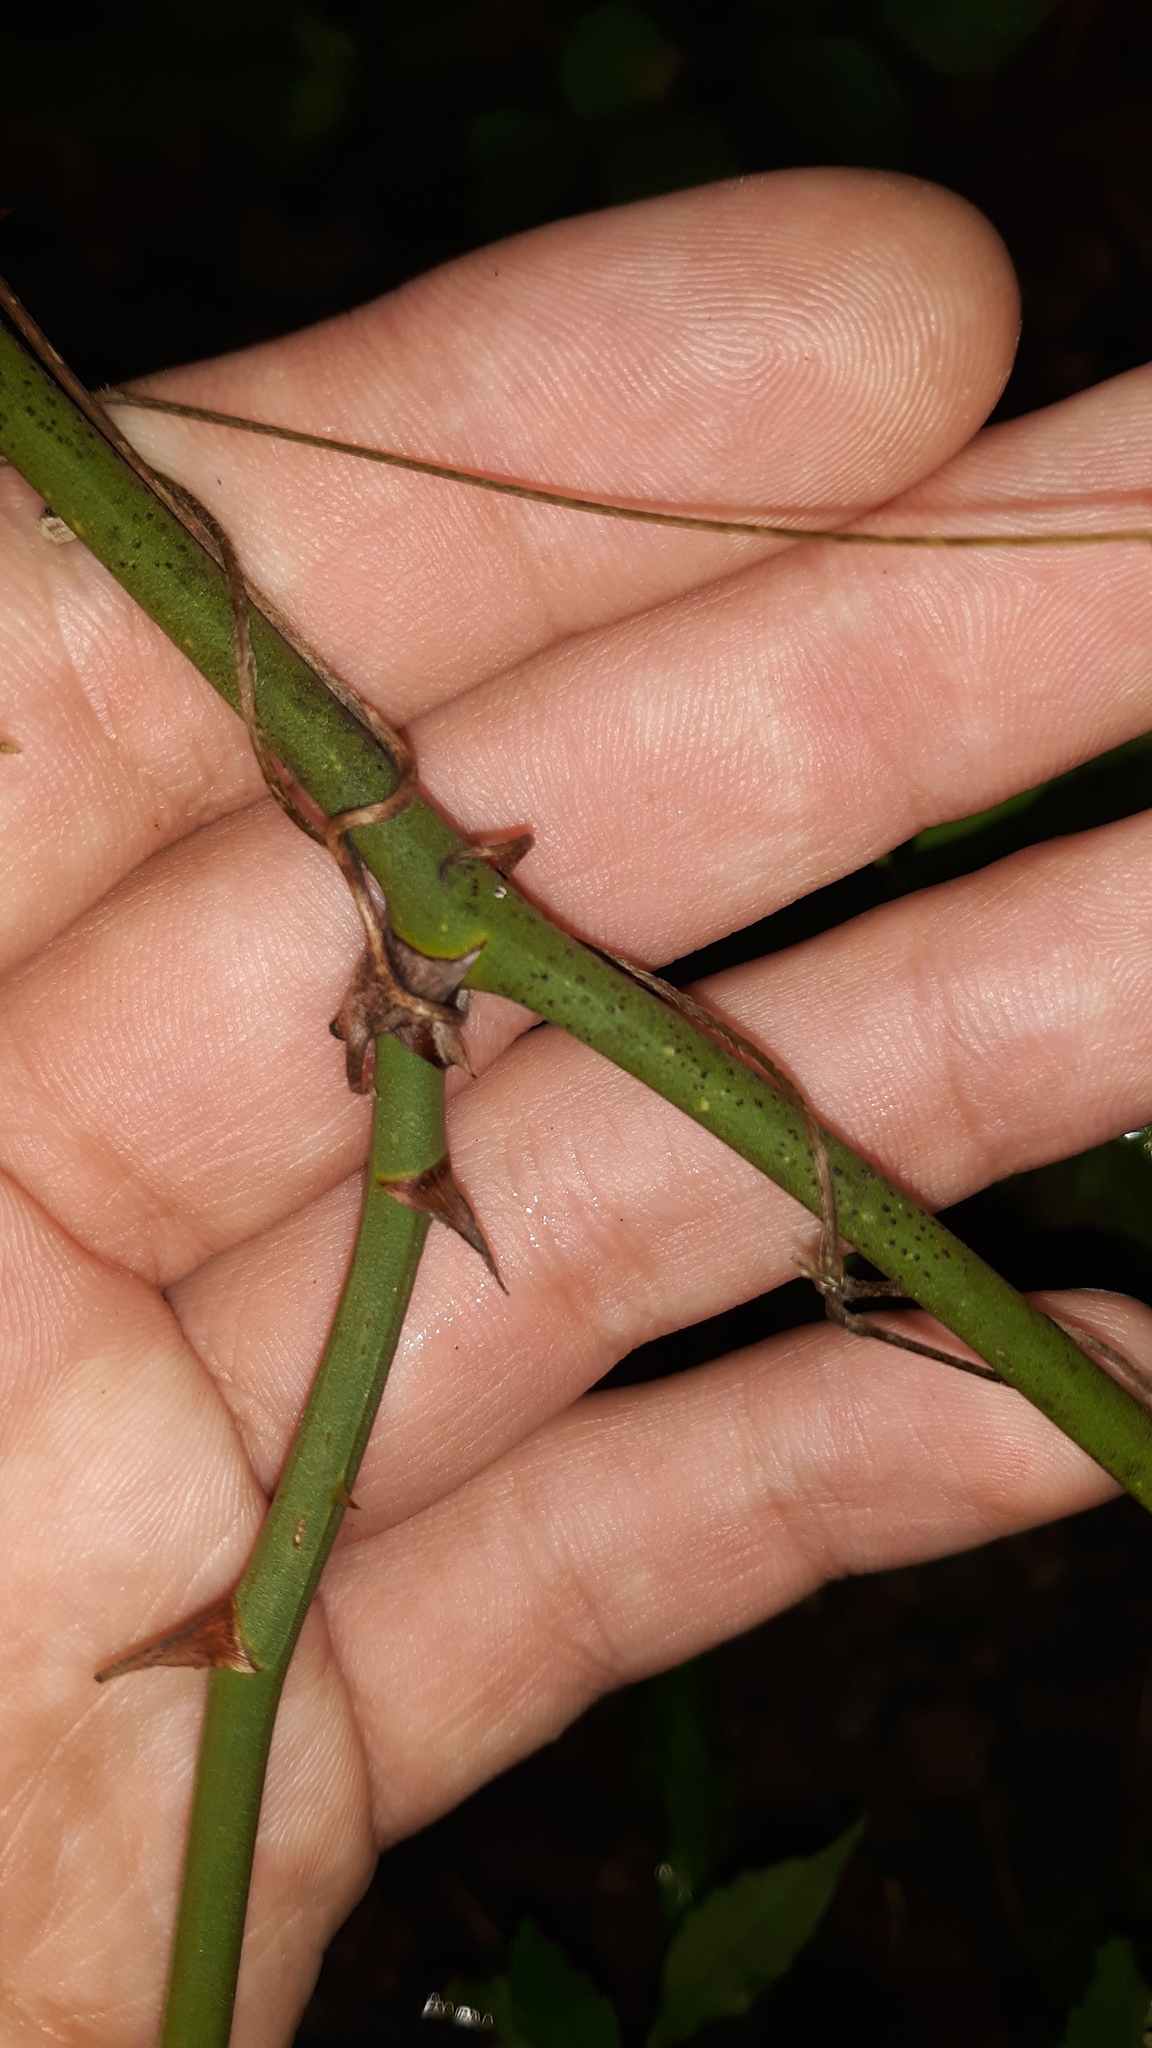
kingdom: Plantae
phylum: Tracheophyta
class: Liliopsida
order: Liliales
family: Smilacaceae
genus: Smilax
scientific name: Smilax rotundifolia
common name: Bullbriar
